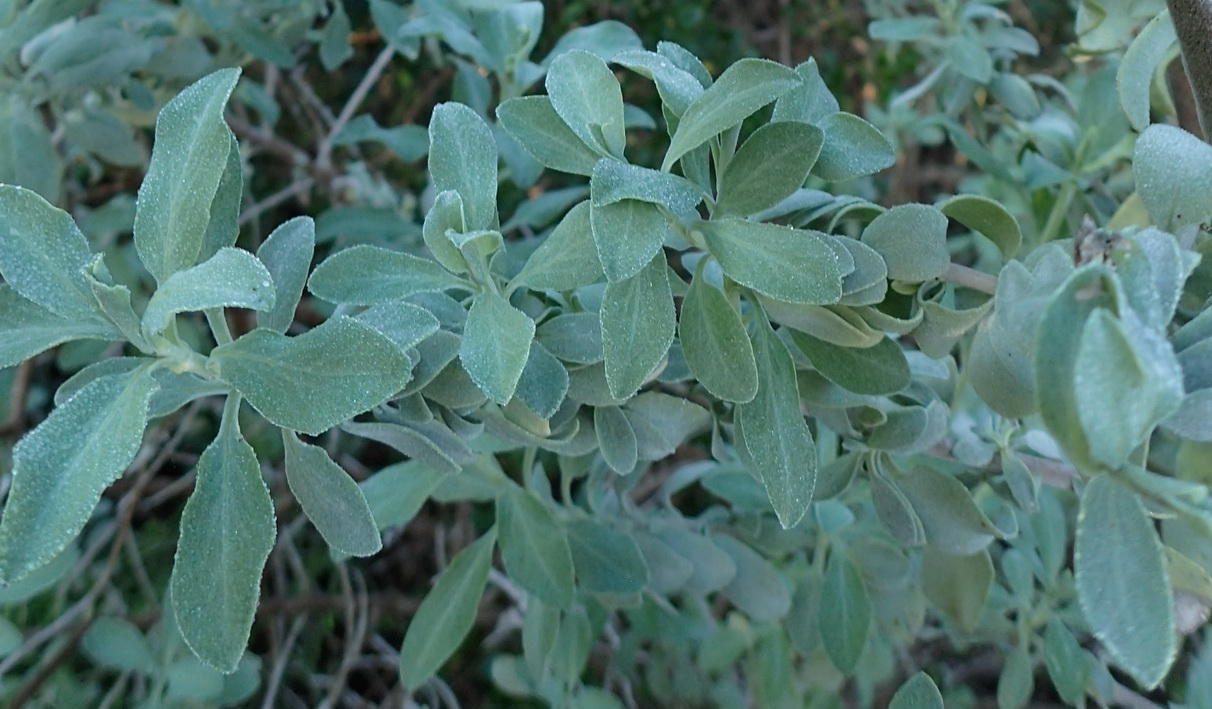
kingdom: Plantae
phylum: Tracheophyta
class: Magnoliopsida
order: Lamiales
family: Lamiaceae
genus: Salvia
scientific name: Salvia aurea
